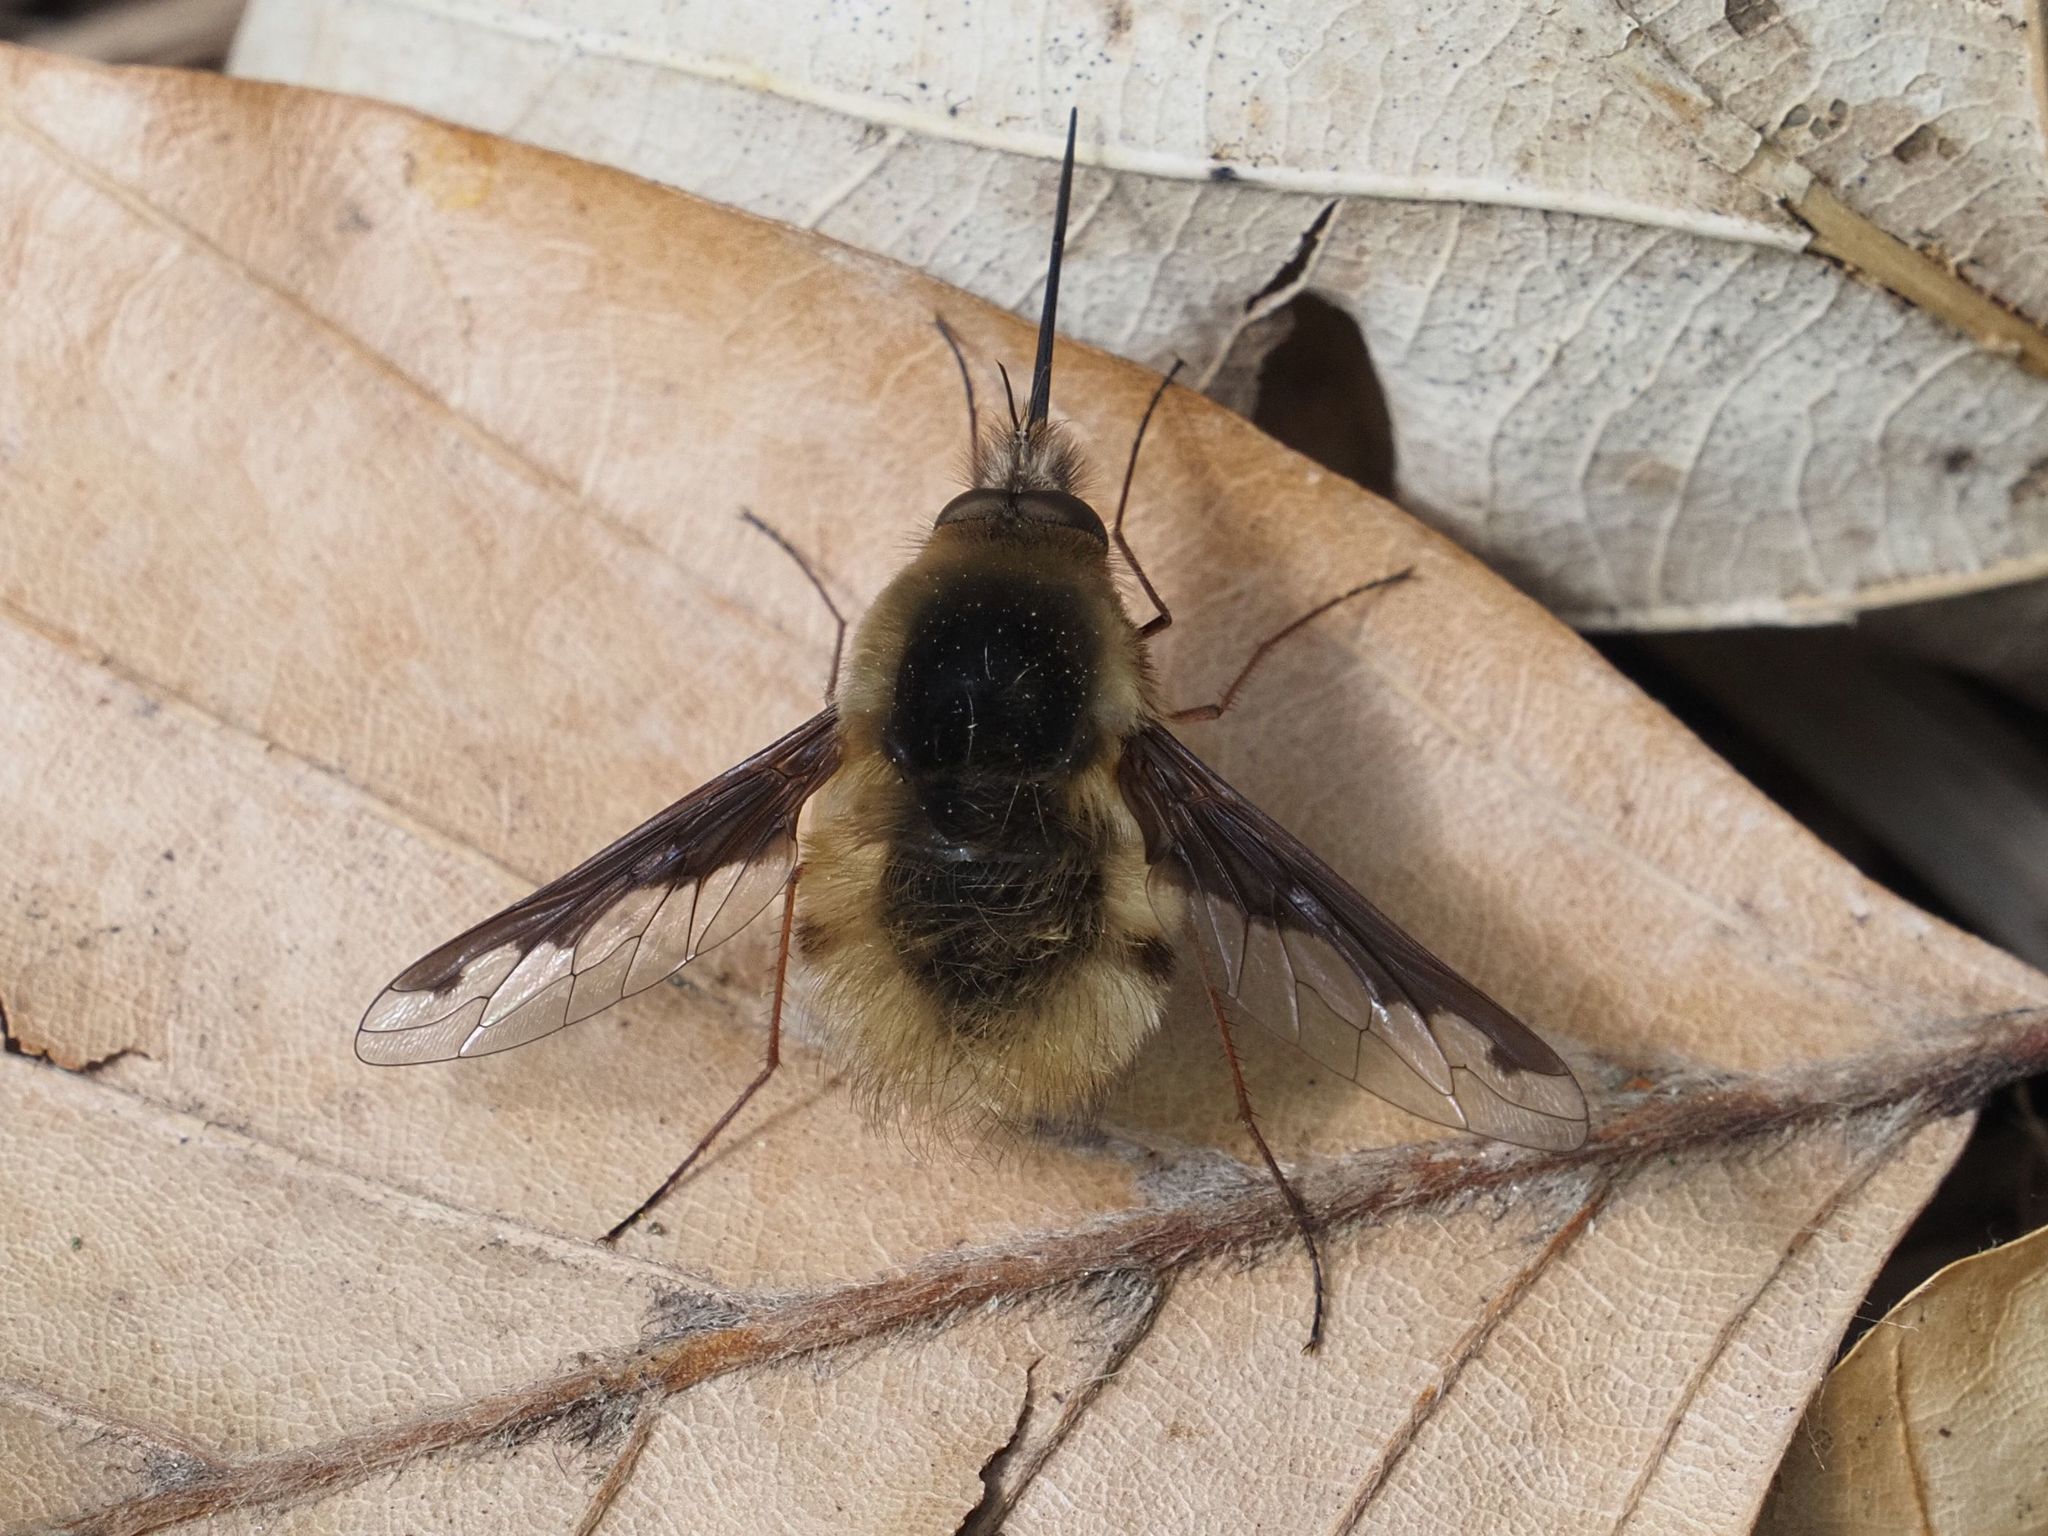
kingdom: Animalia
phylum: Arthropoda
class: Insecta
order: Diptera
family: Bombyliidae
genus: Bombylius
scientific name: Bombylius major
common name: Bee fly
